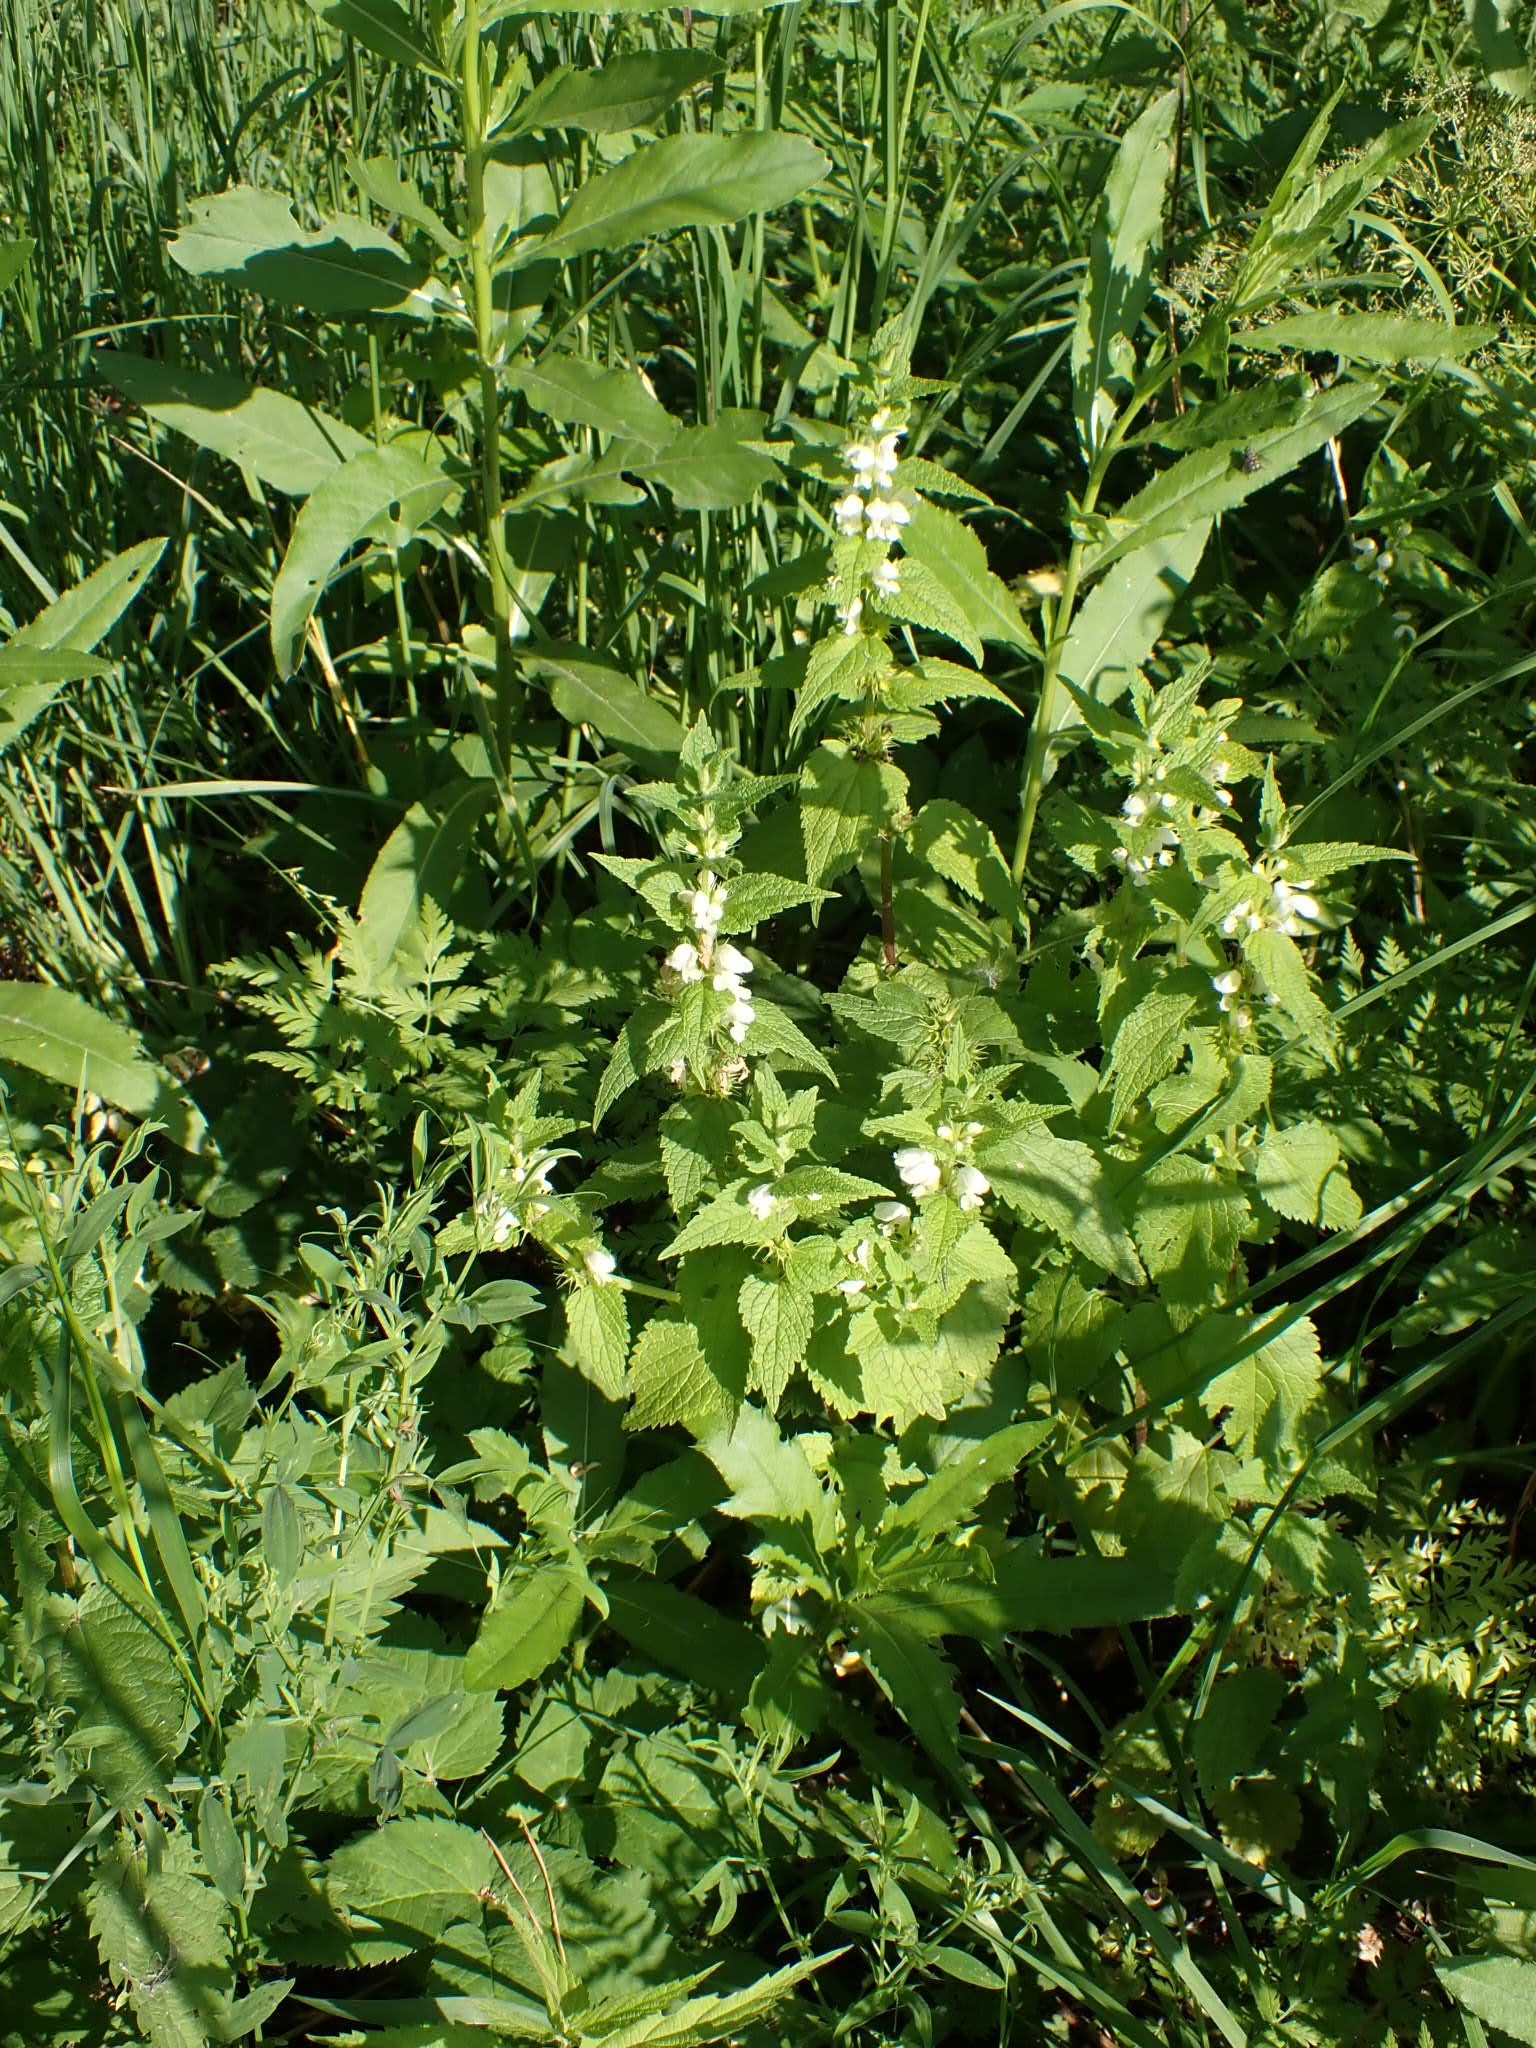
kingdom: Plantae
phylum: Tracheophyta
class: Magnoliopsida
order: Lamiales
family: Lamiaceae
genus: Lamium
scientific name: Lamium album
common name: White dead-nettle
